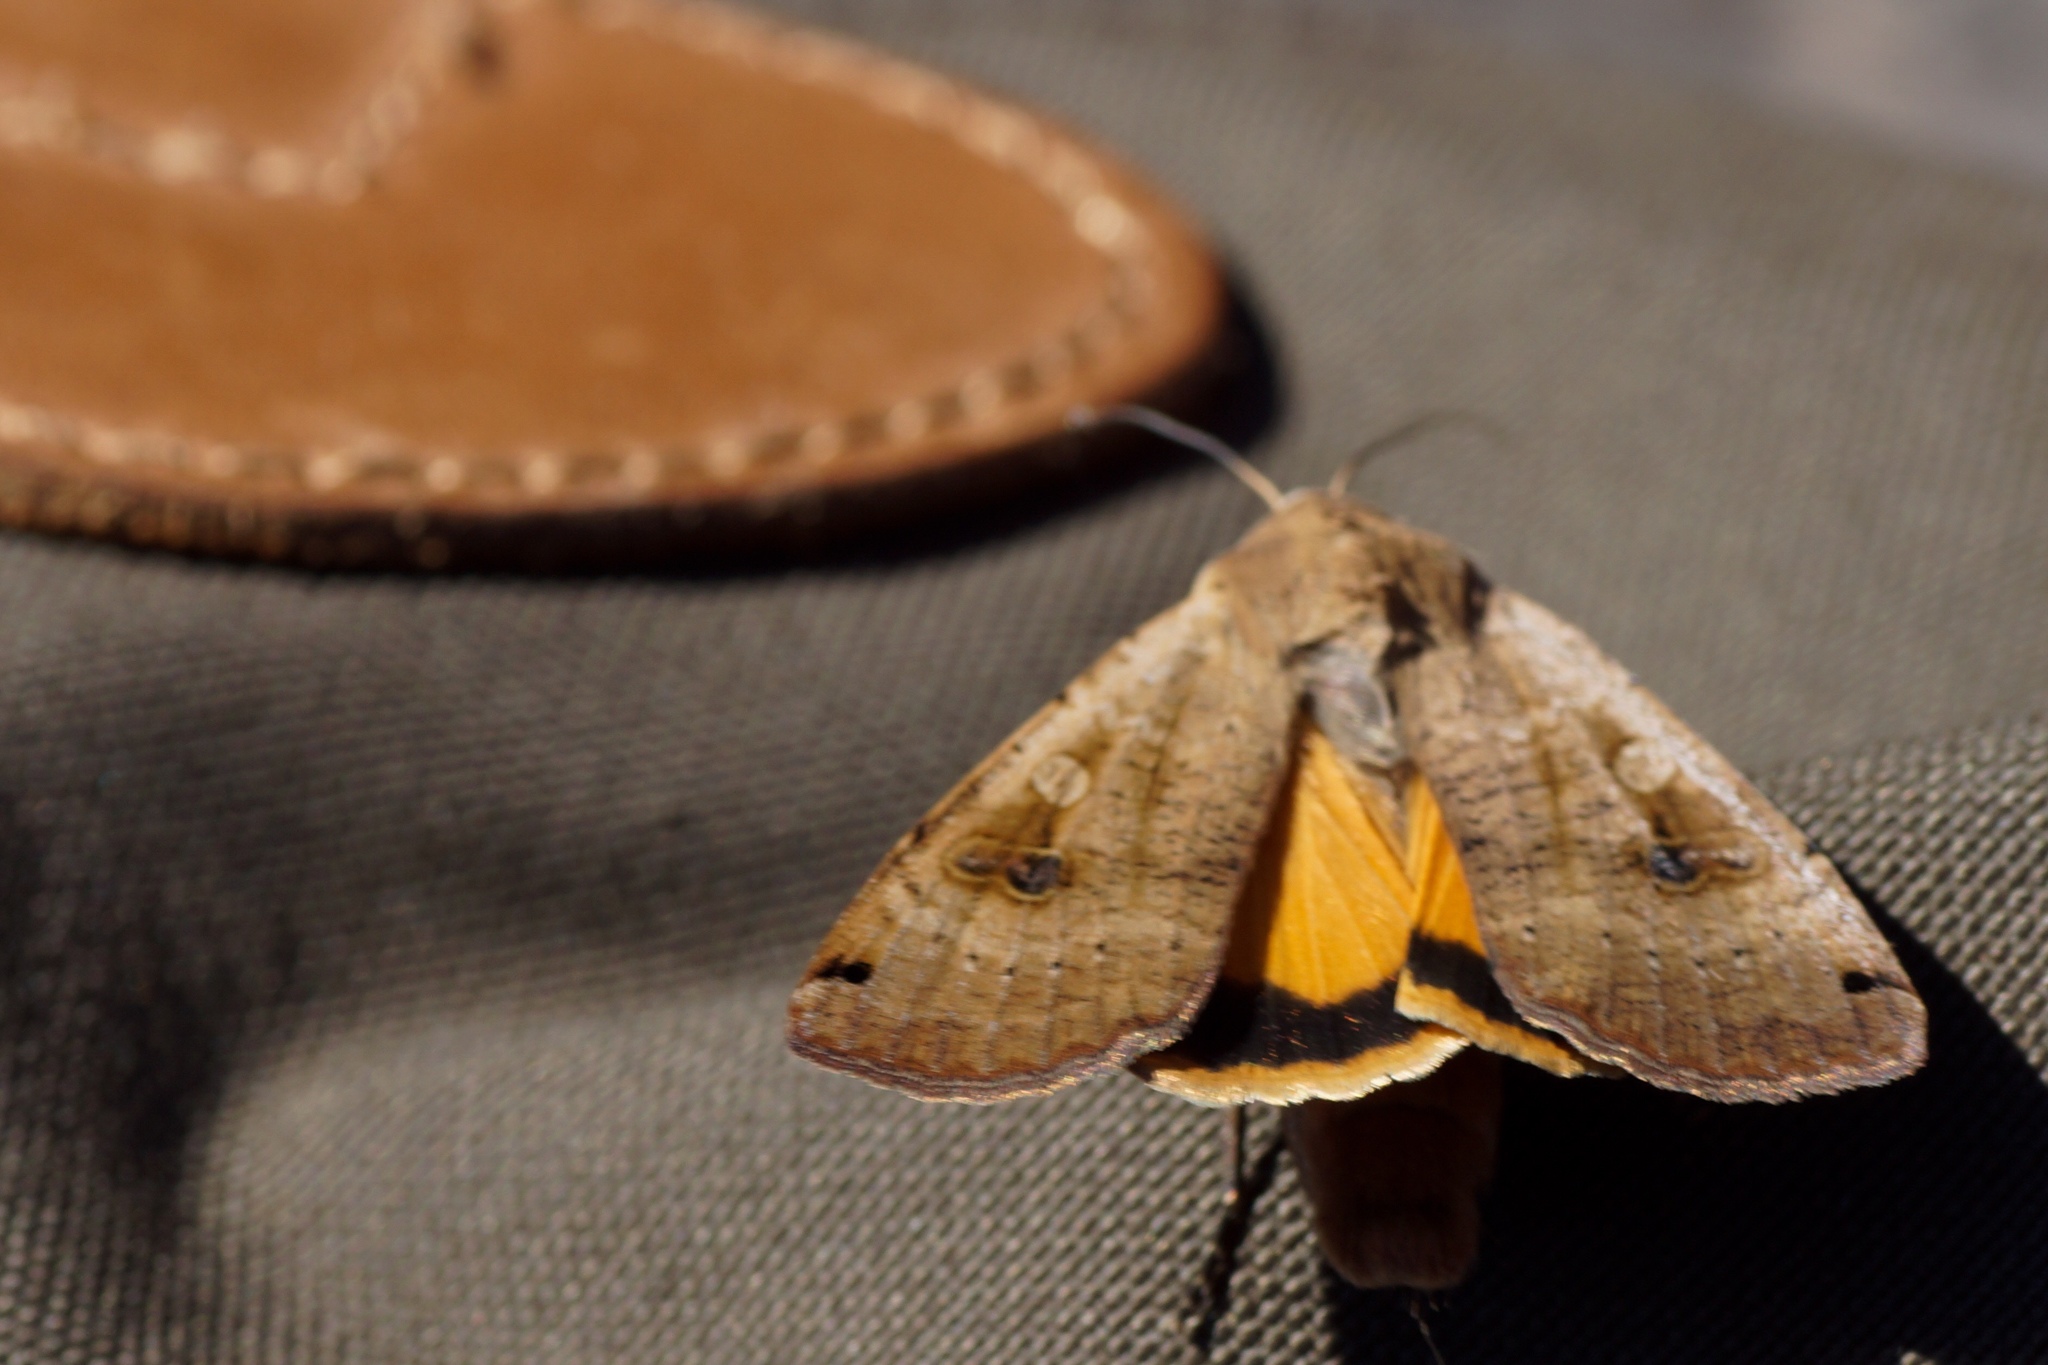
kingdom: Animalia
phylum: Arthropoda
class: Insecta
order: Lepidoptera
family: Noctuidae
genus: Noctua
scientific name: Noctua pronuba
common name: Large yellow underwing
